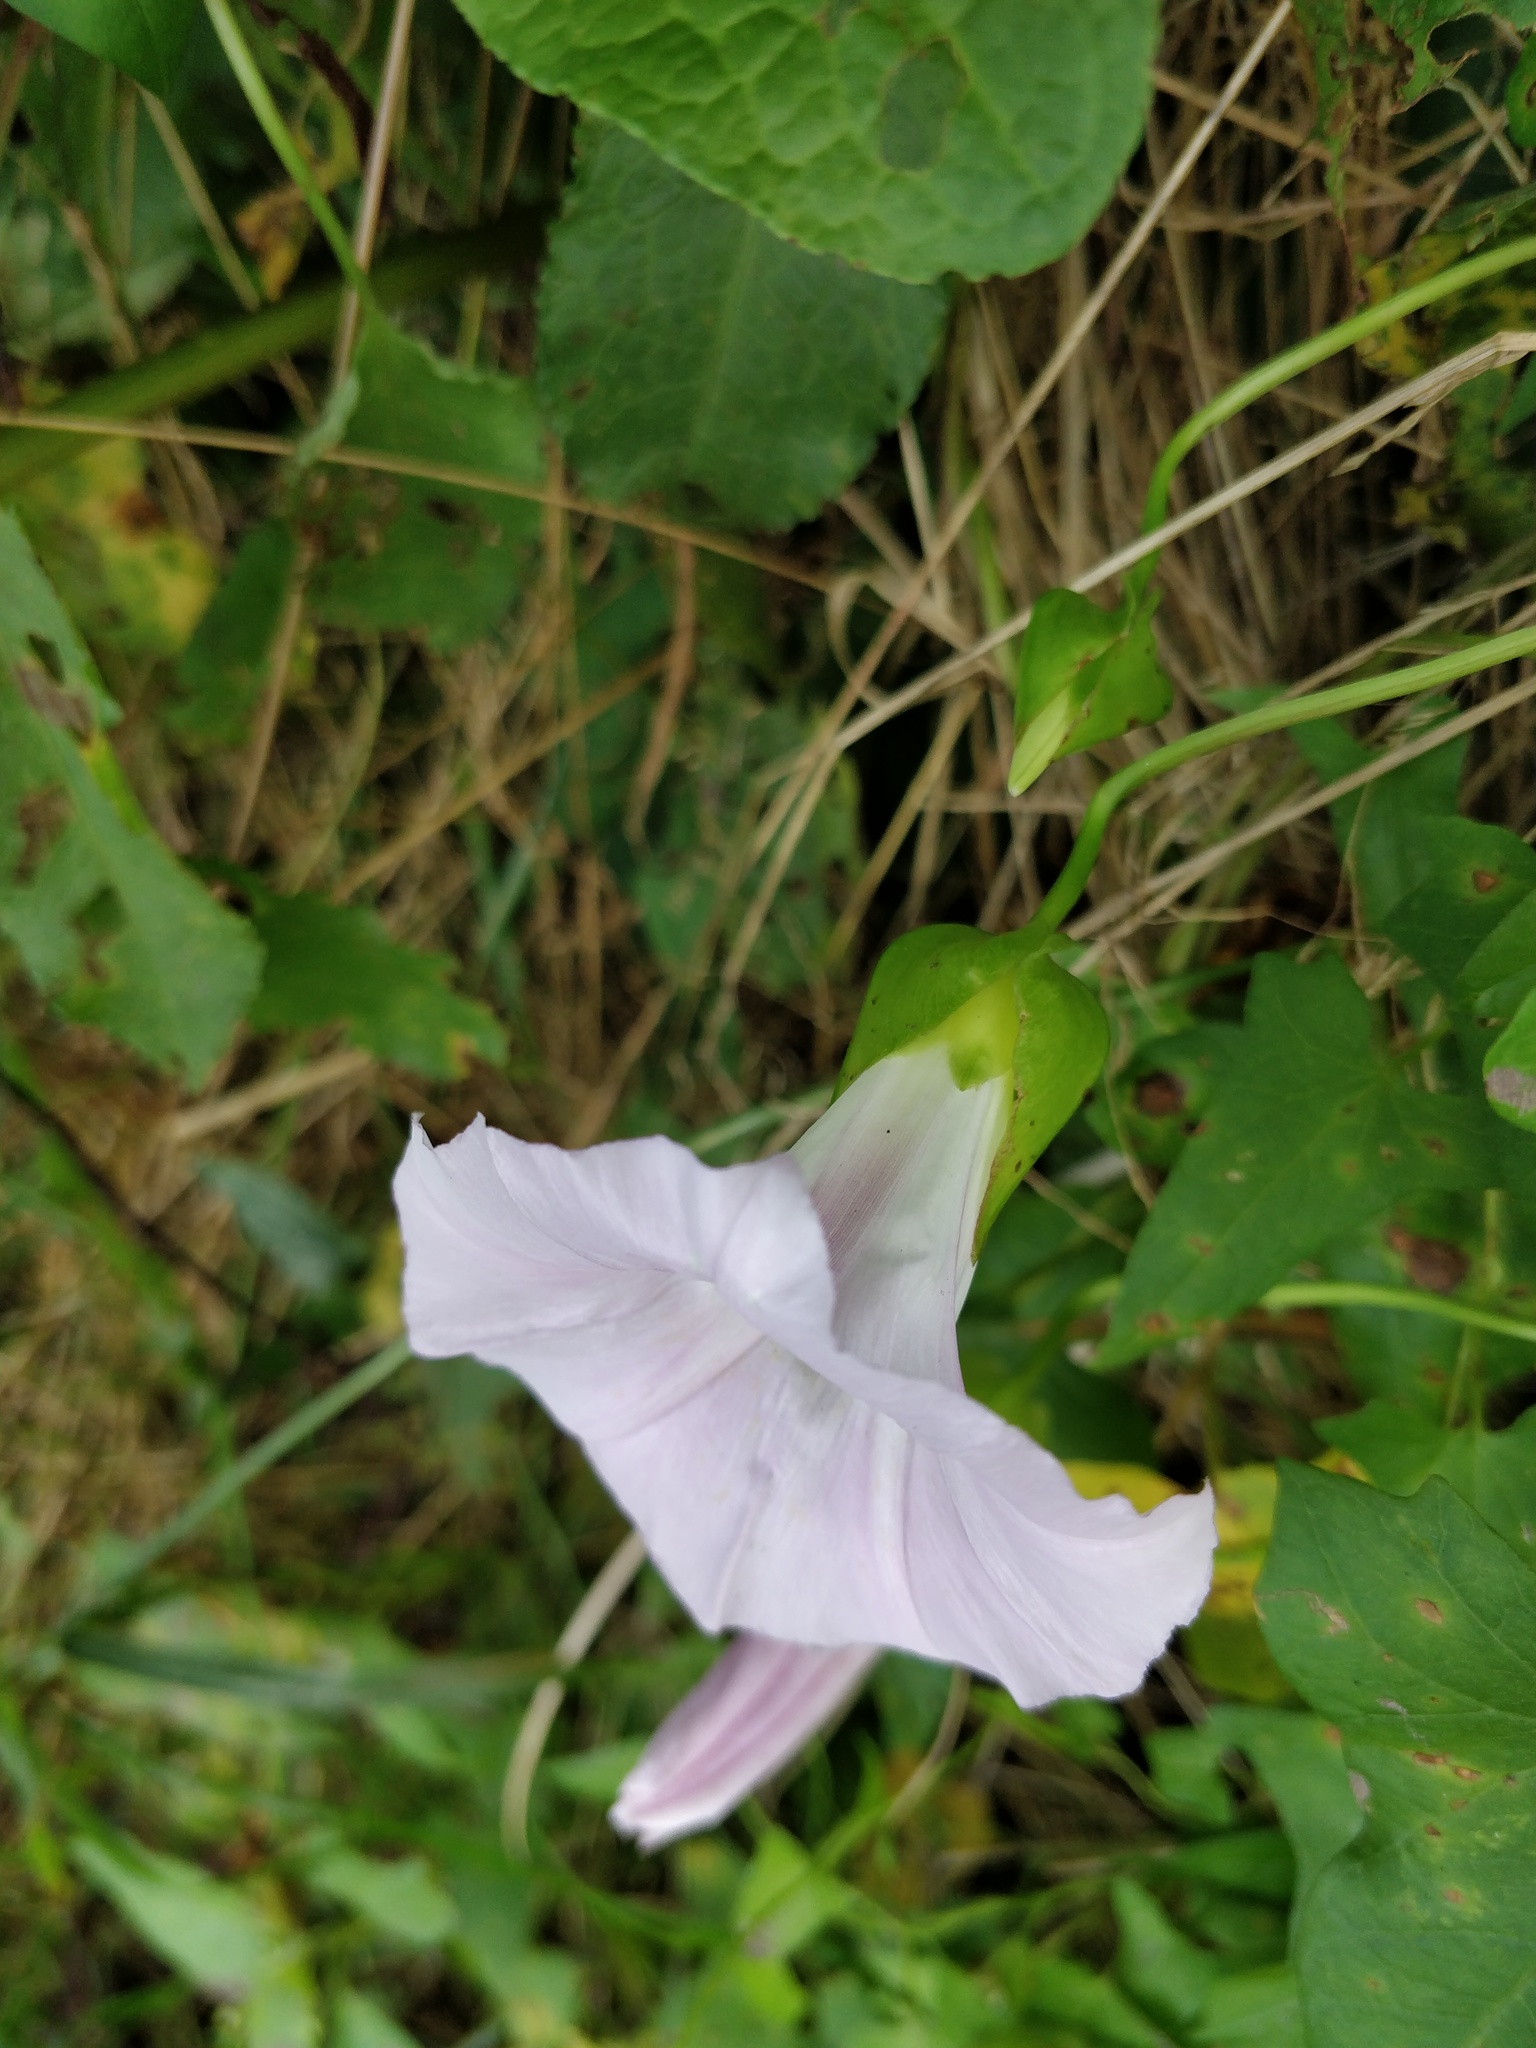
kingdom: Plantae
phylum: Tracheophyta
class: Magnoliopsida
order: Solanales
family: Convolvulaceae
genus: Calystegia
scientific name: Calystegia sepium
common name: Hedge bindweed
